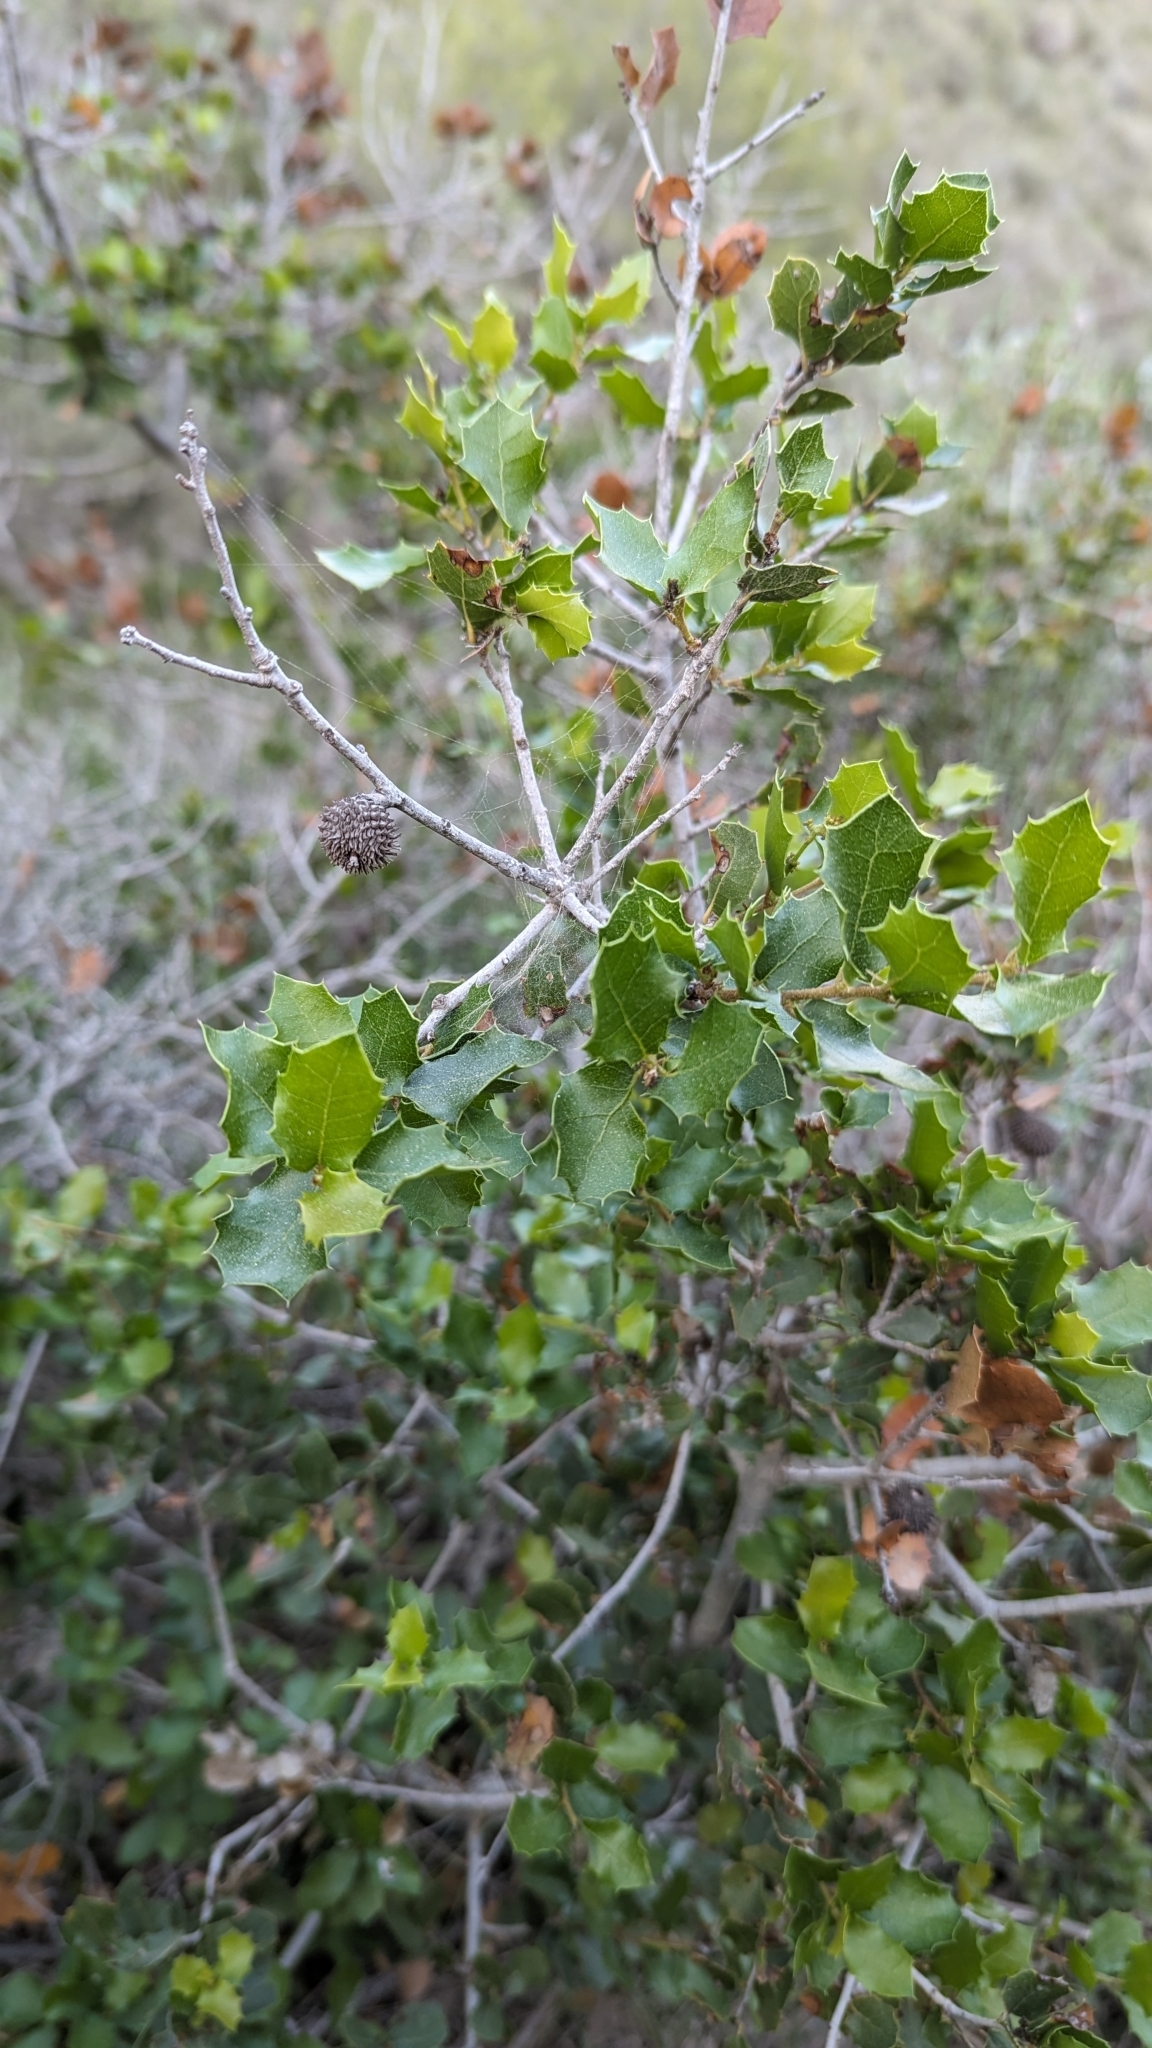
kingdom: Plantae
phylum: Tracheophyta
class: Magnoliopsida
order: Fagales
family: Fagaceae
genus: Quercus
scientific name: Quercus coccifera
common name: Kermes oak
